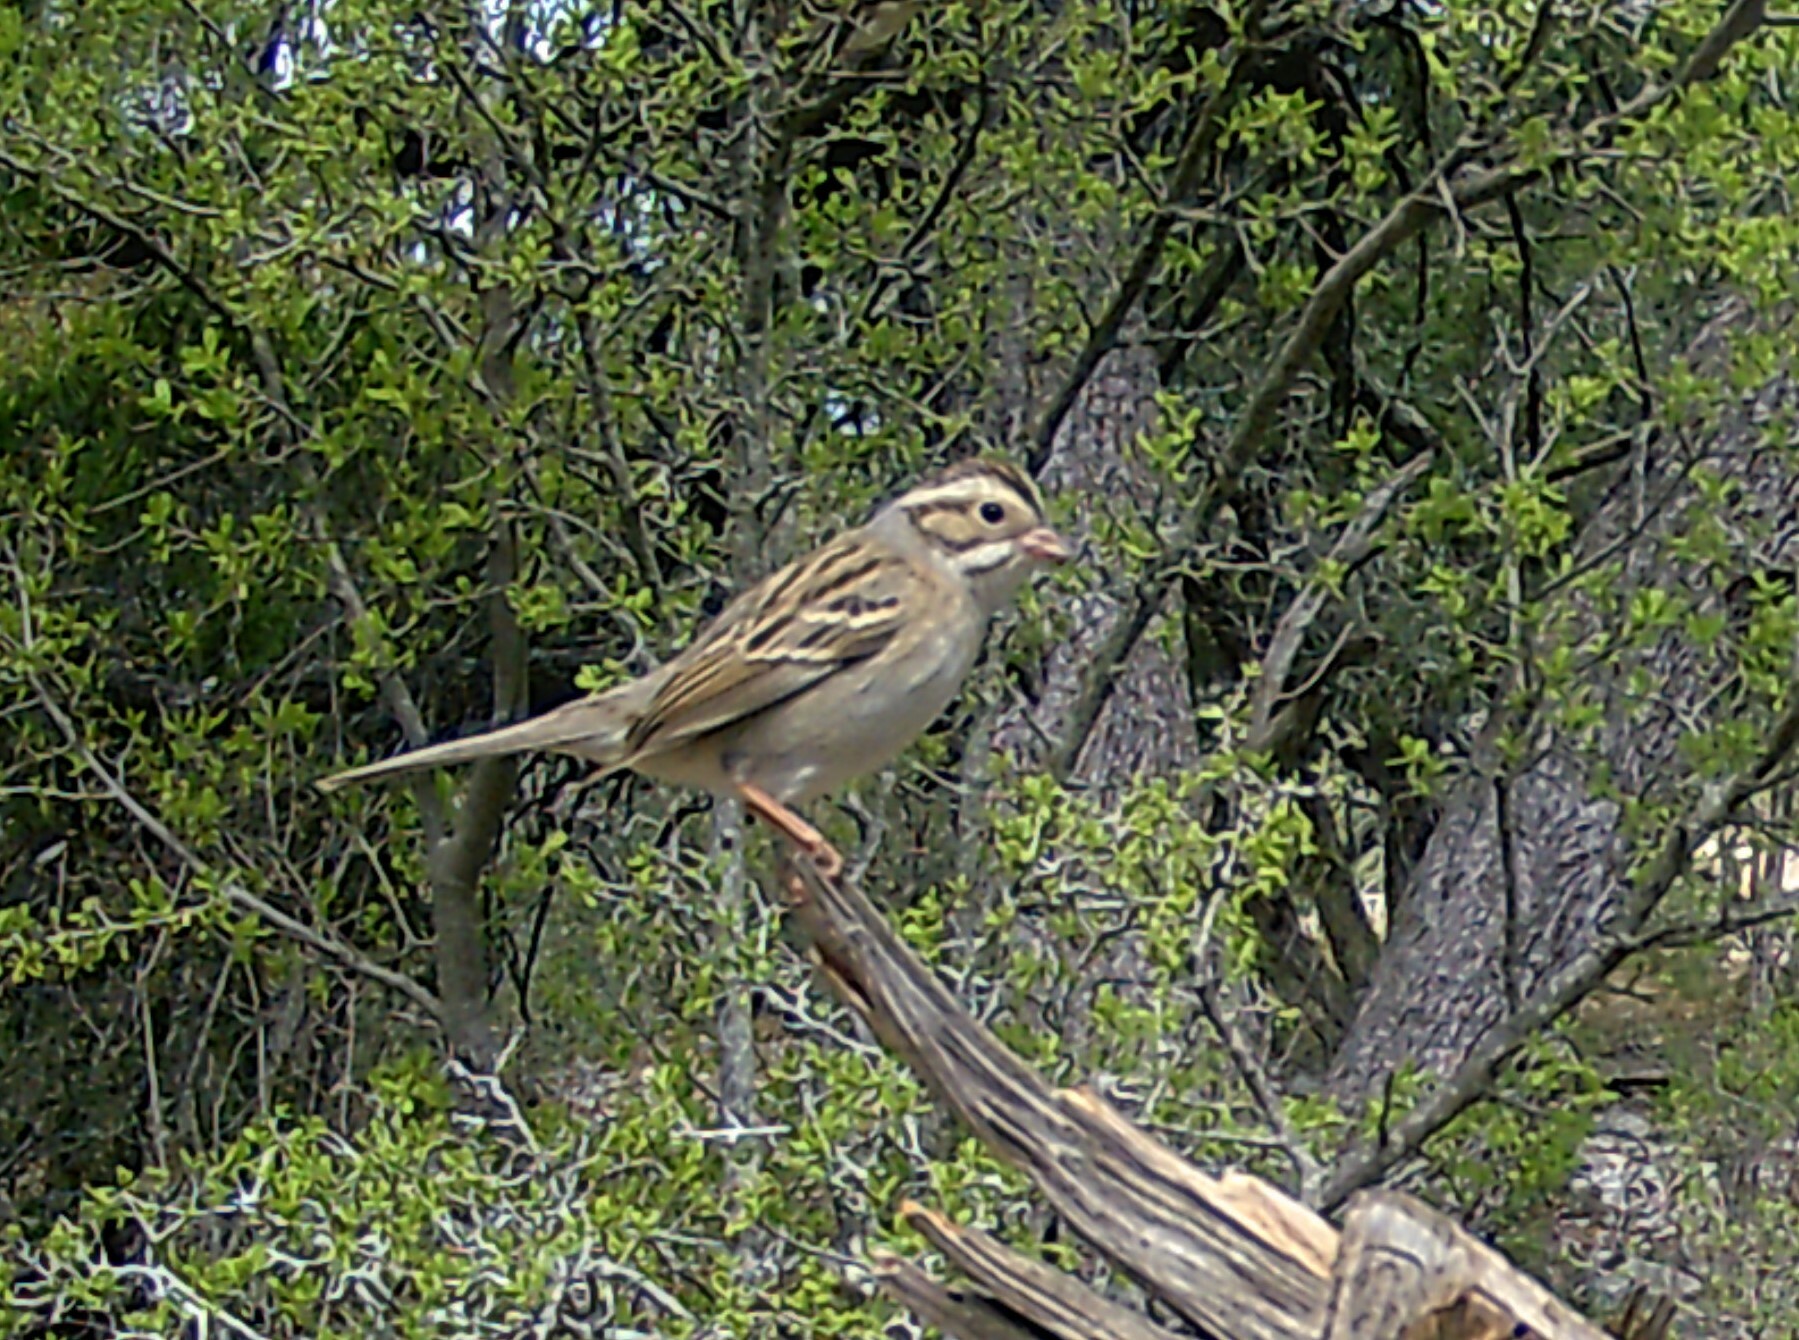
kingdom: Animalia
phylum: Chordata
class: Aves
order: Passeriformes
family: Passerellidae
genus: Spizella
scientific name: Spizella pallida
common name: Clay-colored sparrow
